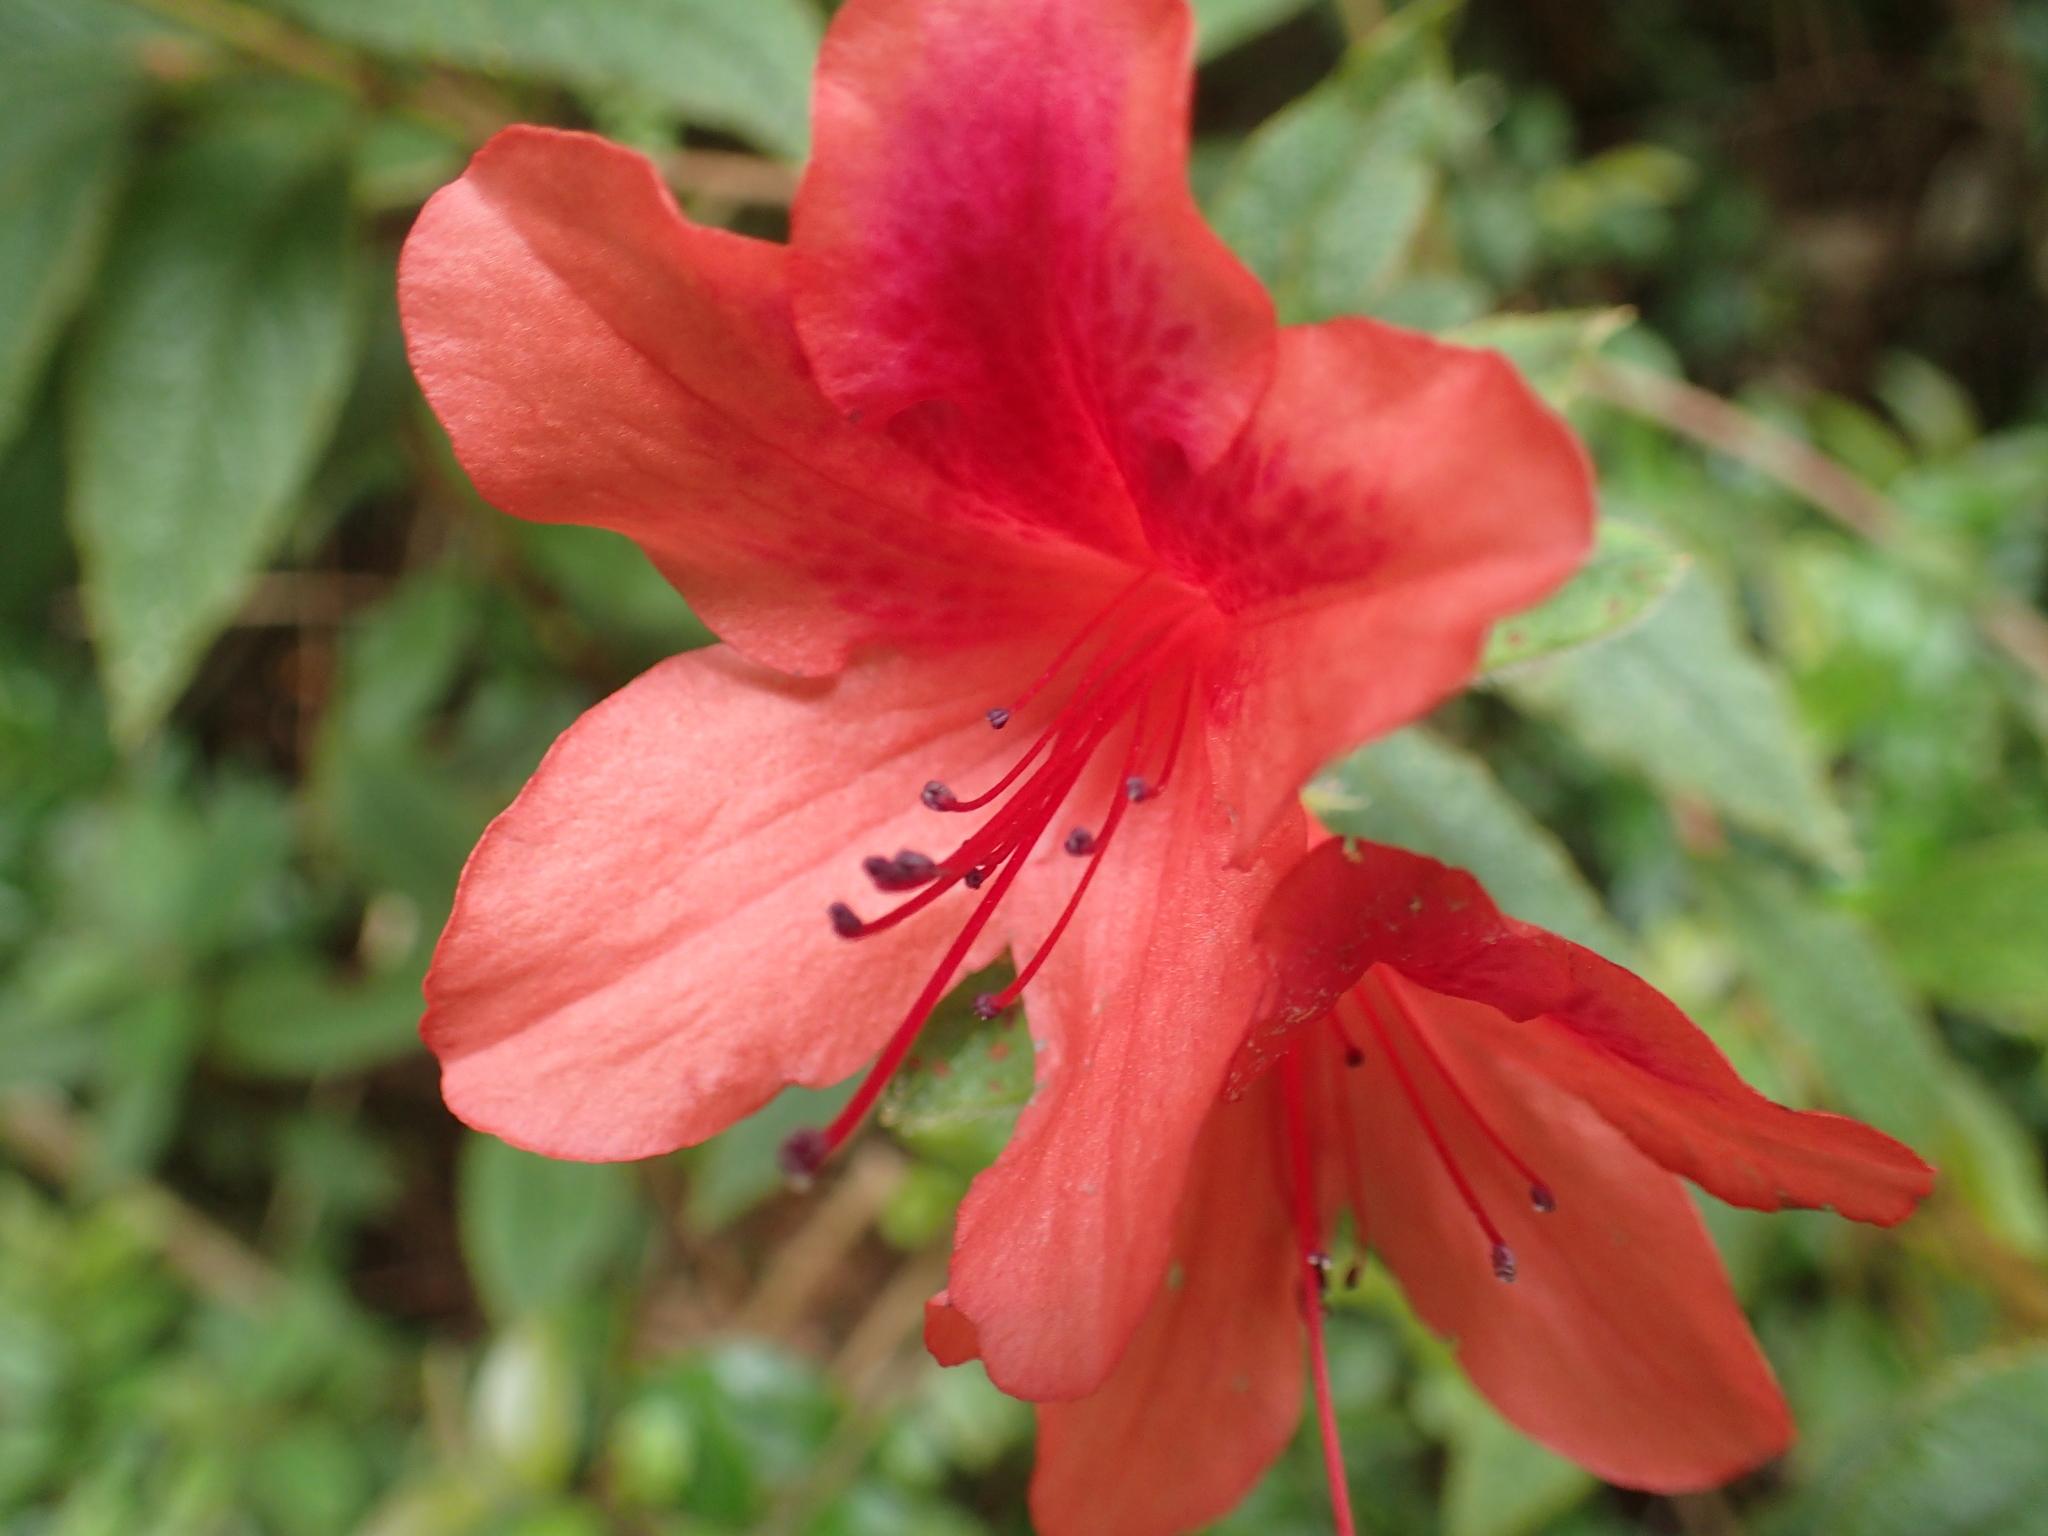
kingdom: Plantae
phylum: Tracheophyta
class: Magnoliopsida
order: Ericales
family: Ericaceae
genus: Rhododendron
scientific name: Rhododendron oldhamii
